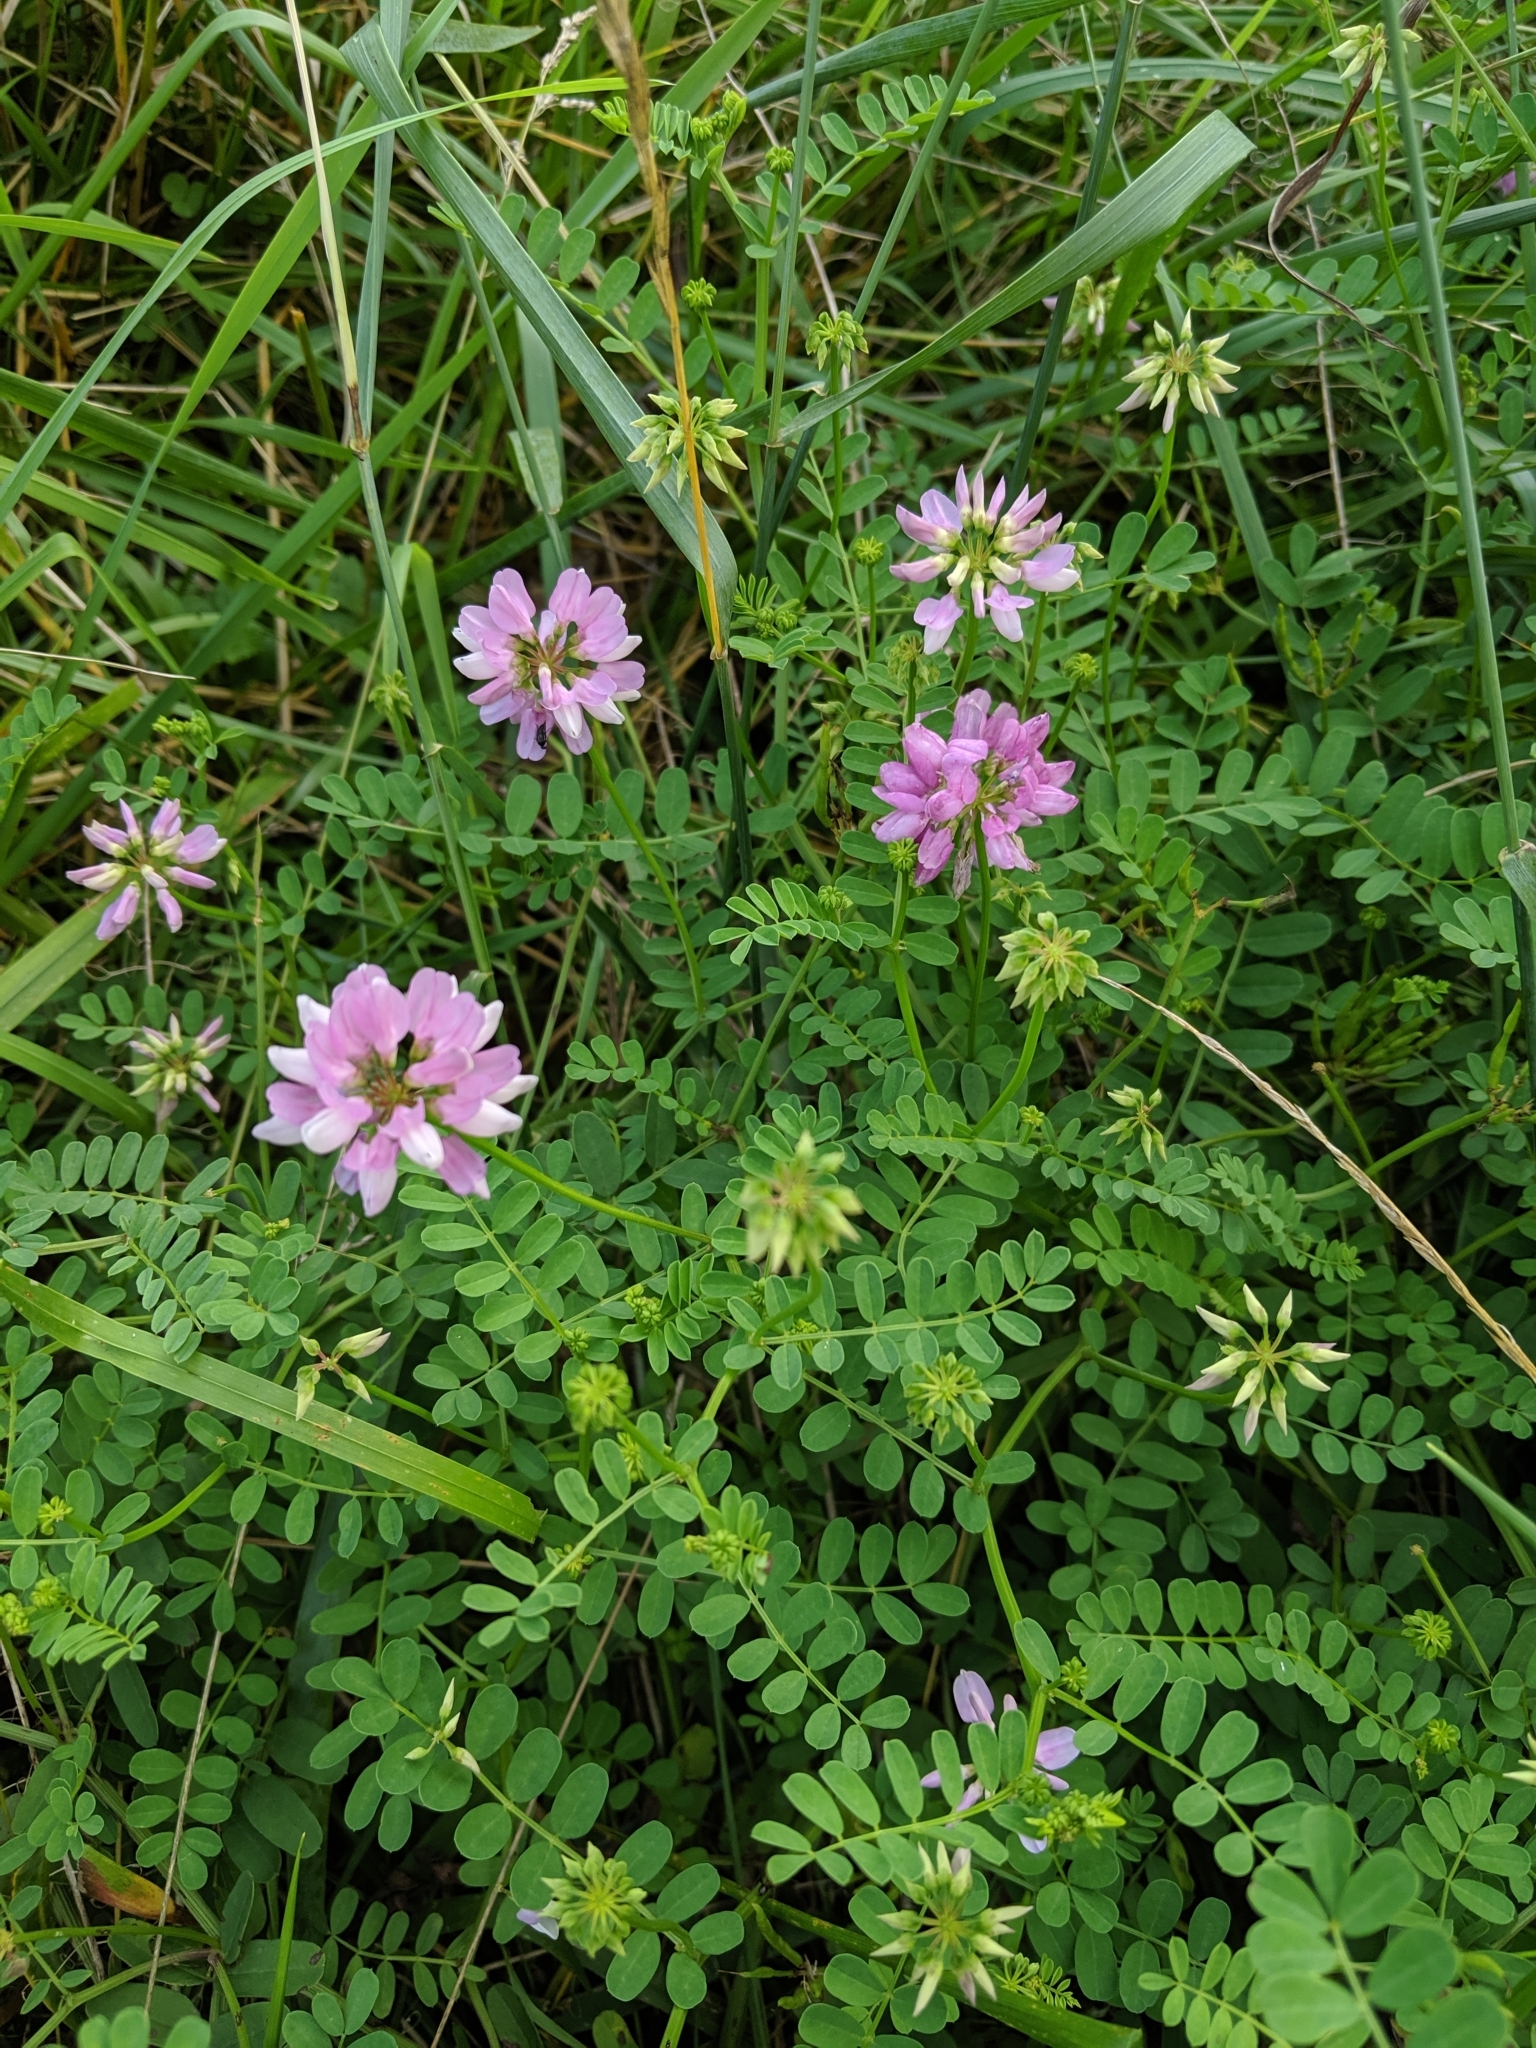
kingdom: Plantae
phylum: Tracheophyta
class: Magnoliopsida
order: Fabales
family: Fabaceae
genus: Coronilla
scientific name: Coronilla varia
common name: Crownvetch
